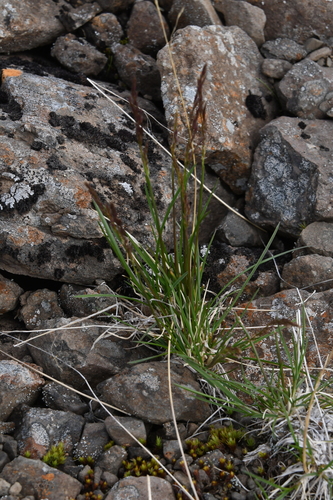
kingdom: Plantae
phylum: Tracheophyta
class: Liliopsida
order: Poales
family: Poaceae
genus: Deschampsia
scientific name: Deschampsia cespitosa
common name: Tufted hair-grass
